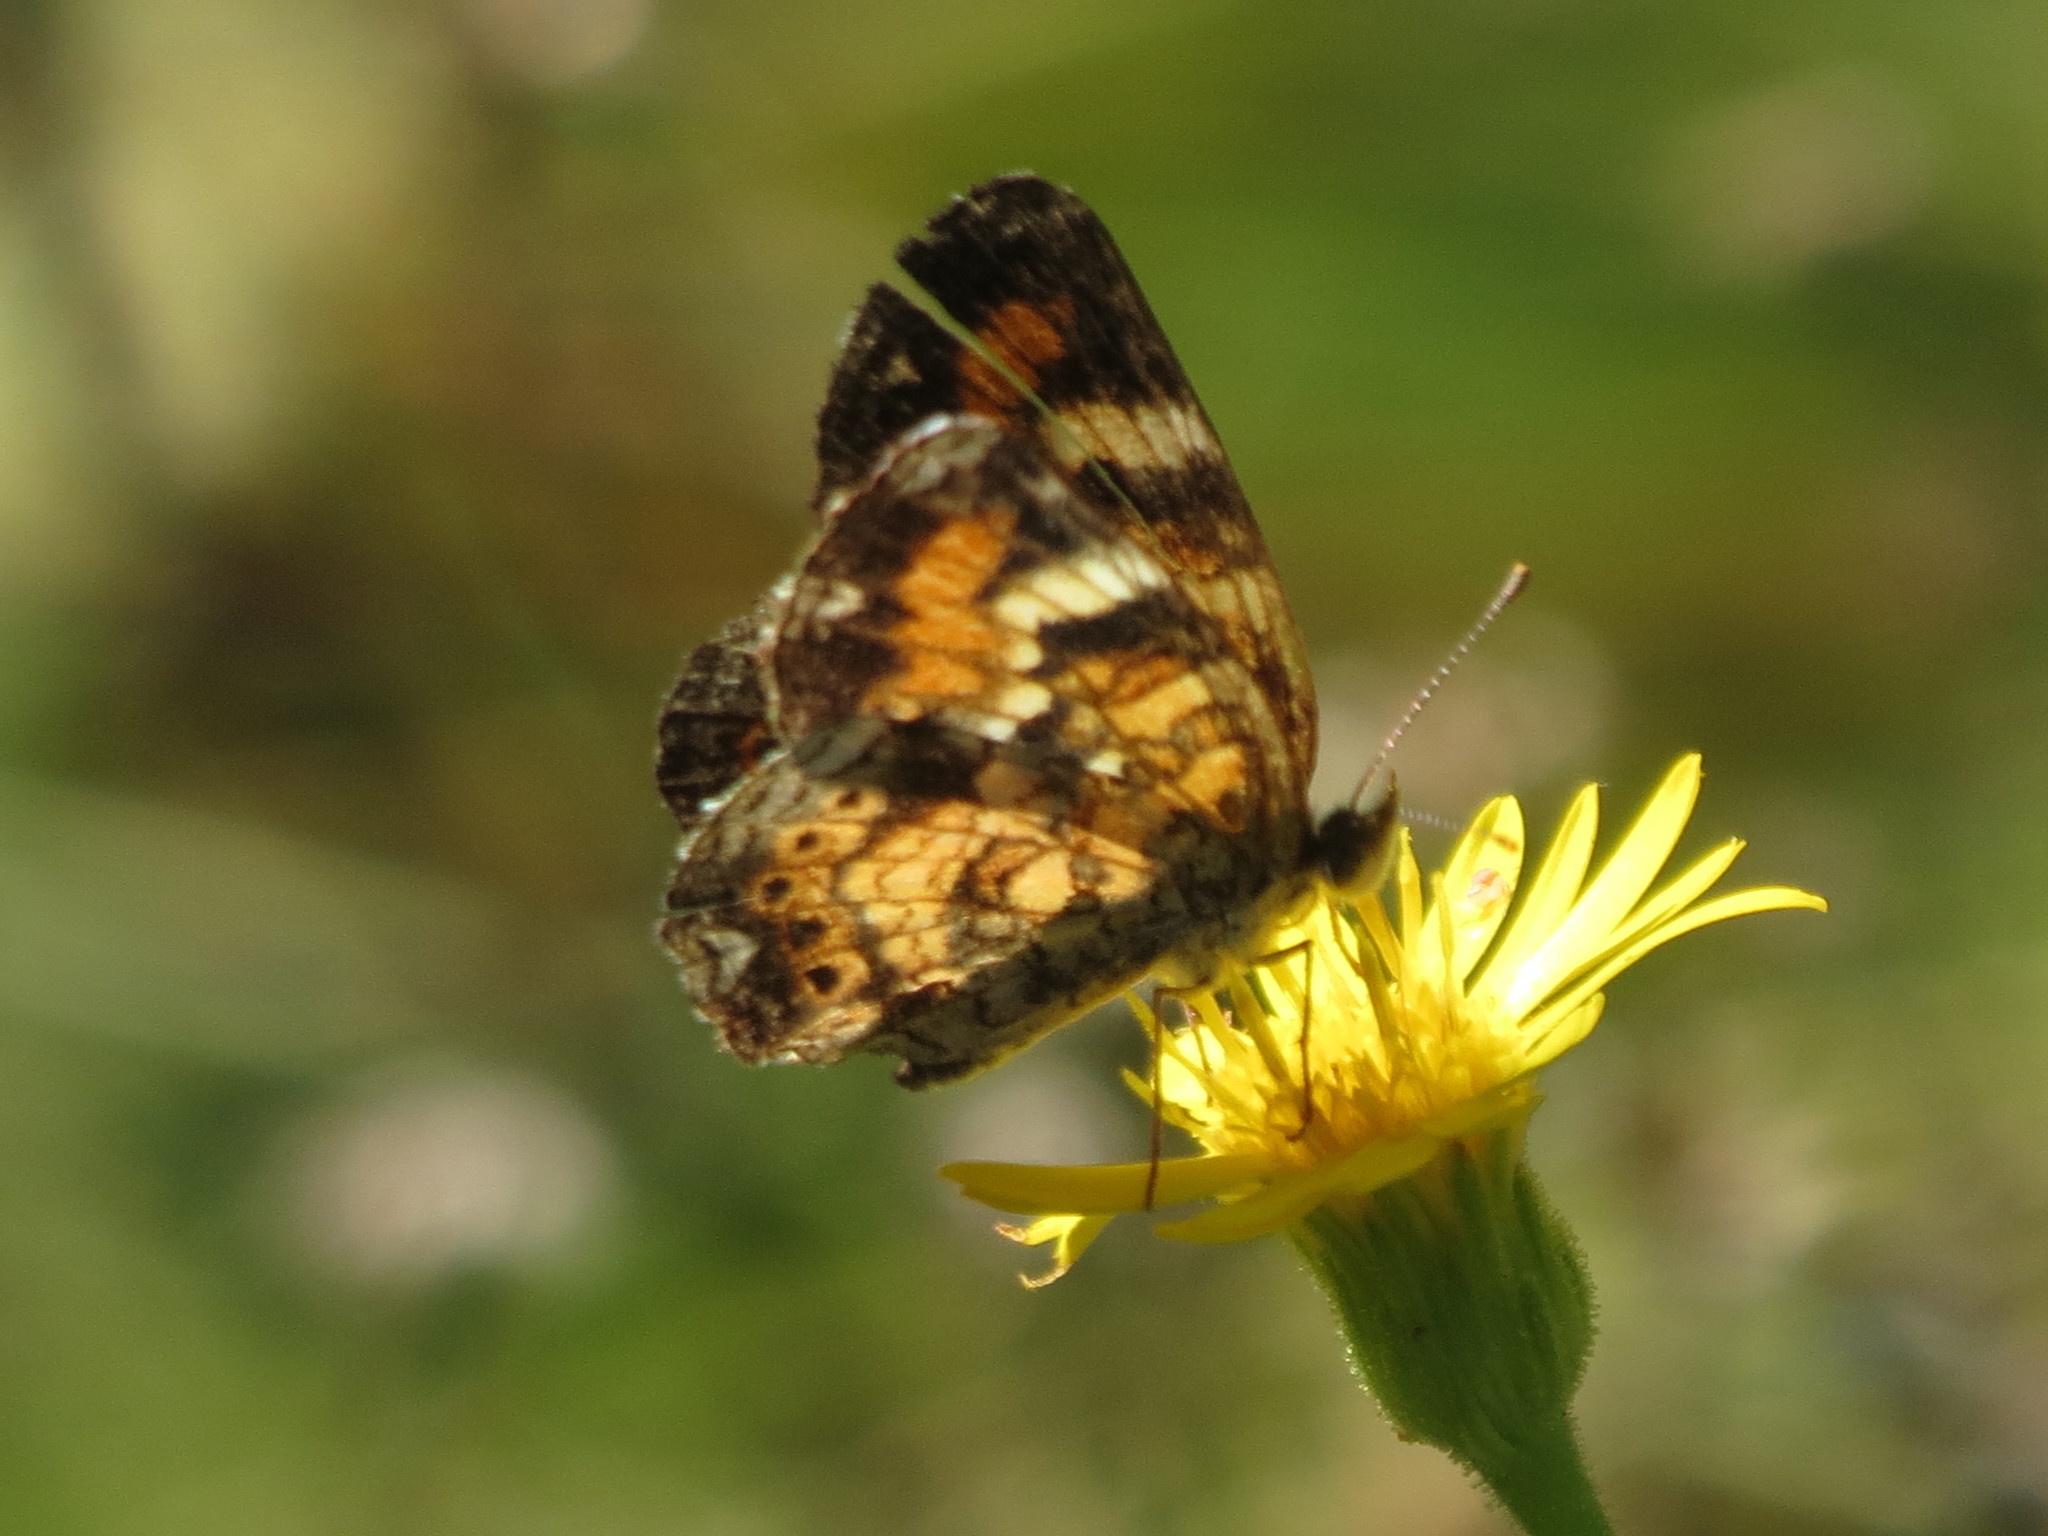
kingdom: Animalia
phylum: Arthropoda
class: Insecta
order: Lepidoptera
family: Nymphalidae
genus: Phyciodes
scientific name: Phyciodes phaon
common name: Phaon crescent
